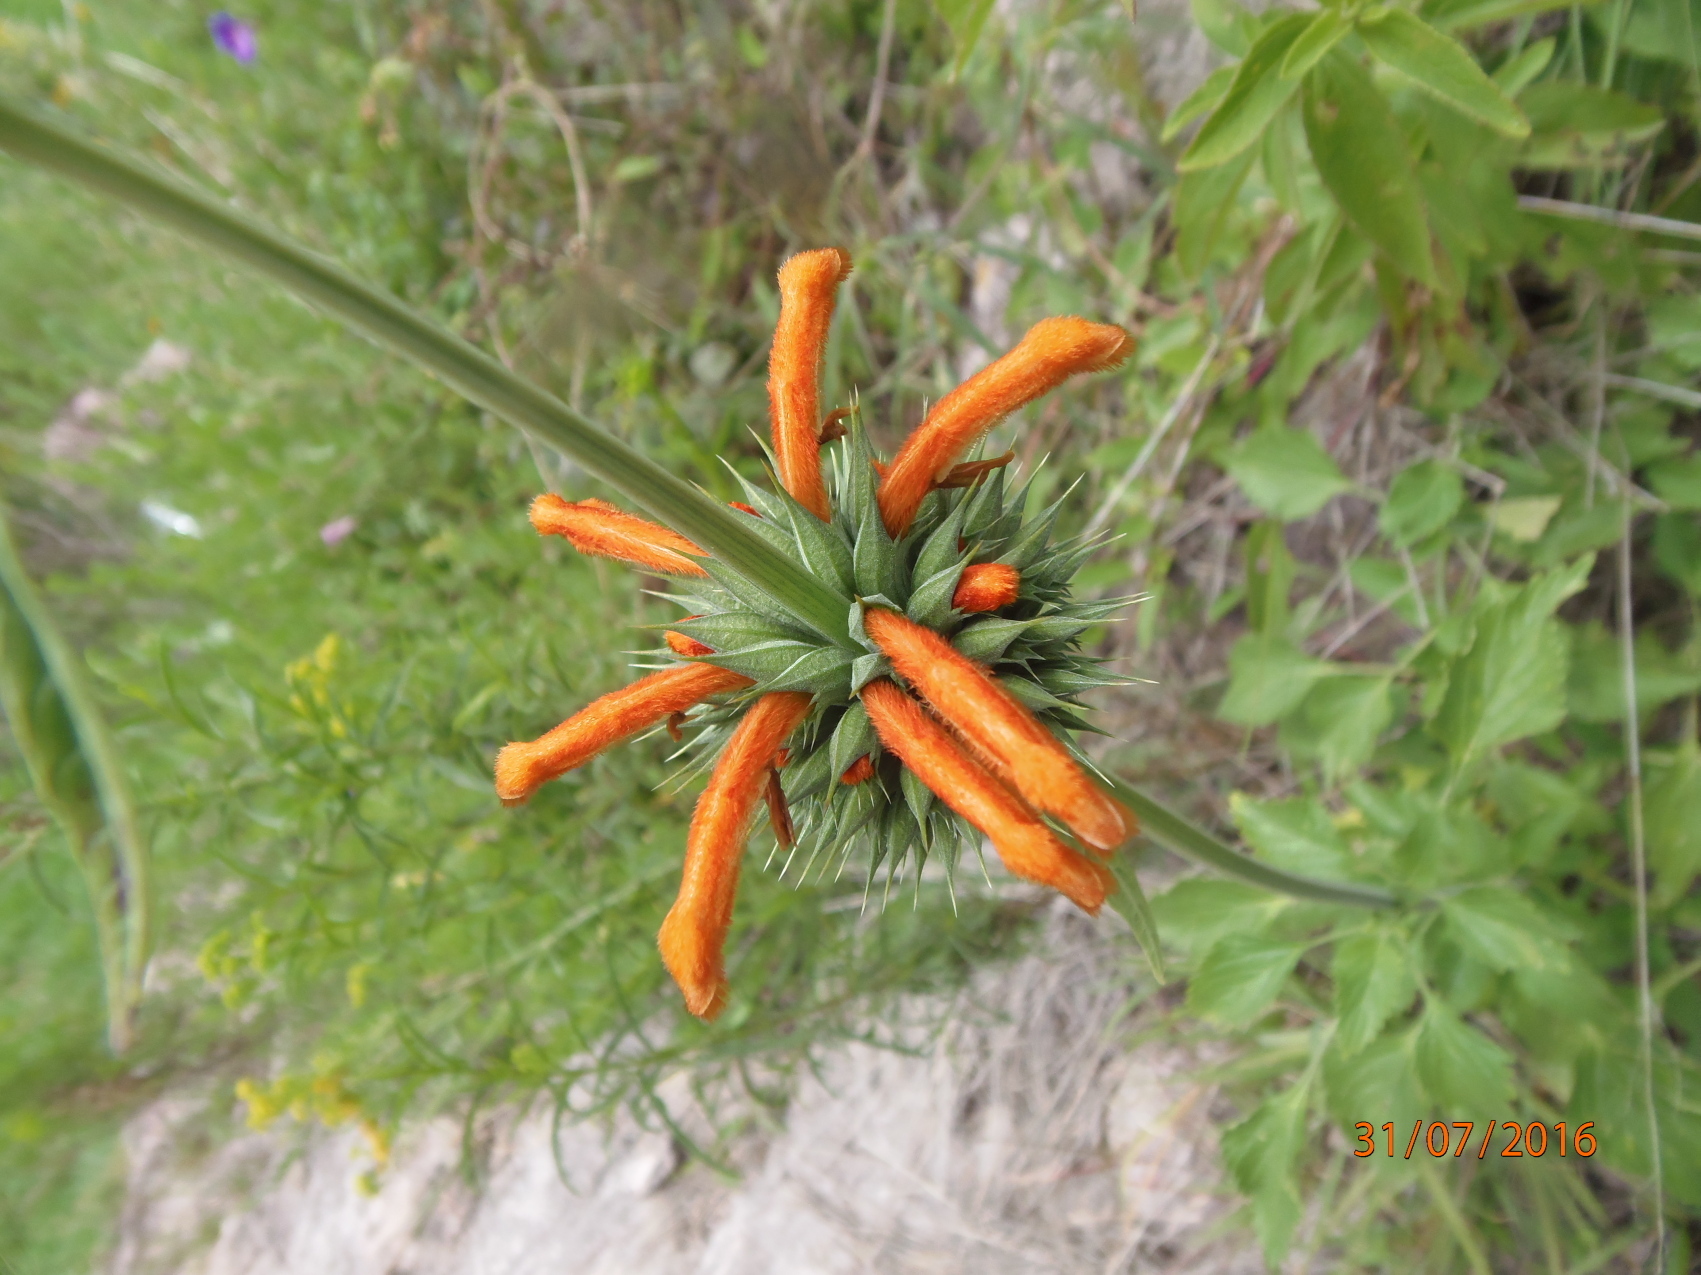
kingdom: Plantae
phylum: Tracheophyta
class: Magnoliopsida
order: Lamiales
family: Lamiaceae
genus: Leonotis
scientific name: Leonotis nepetifolia
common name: Christmas candlestick
